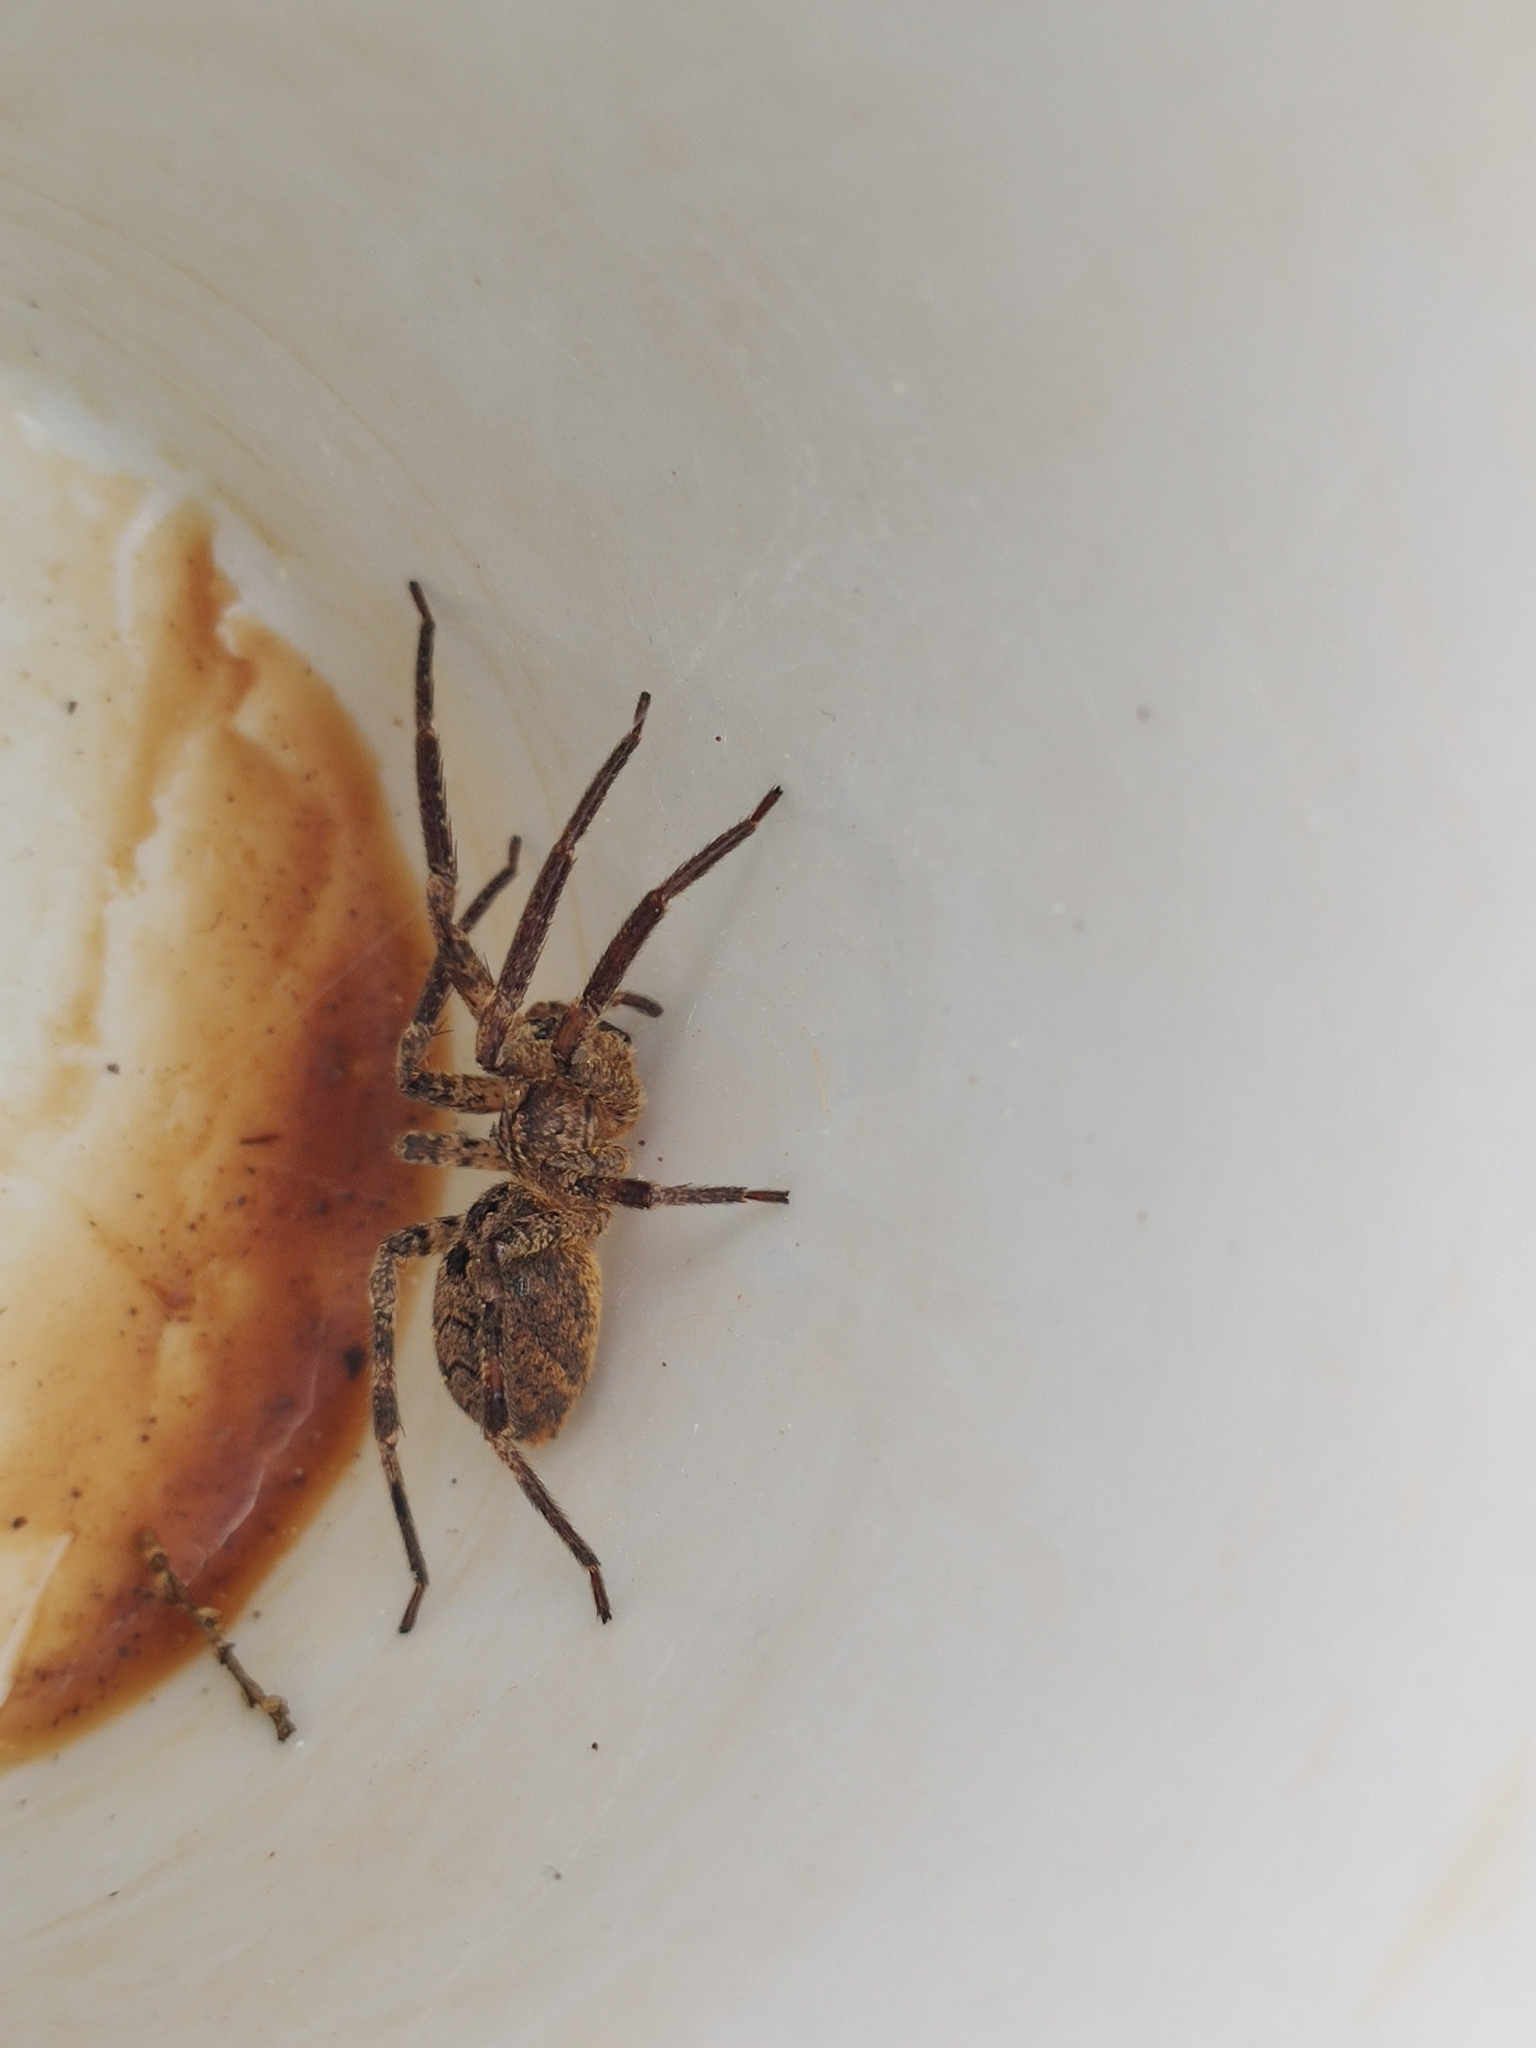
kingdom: Animalia
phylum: Arthropoda
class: Arachnida
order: Araneae
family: Zoropsidae
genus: Zoropsis
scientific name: Zoropsis spinimana
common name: Zoropsid spider
